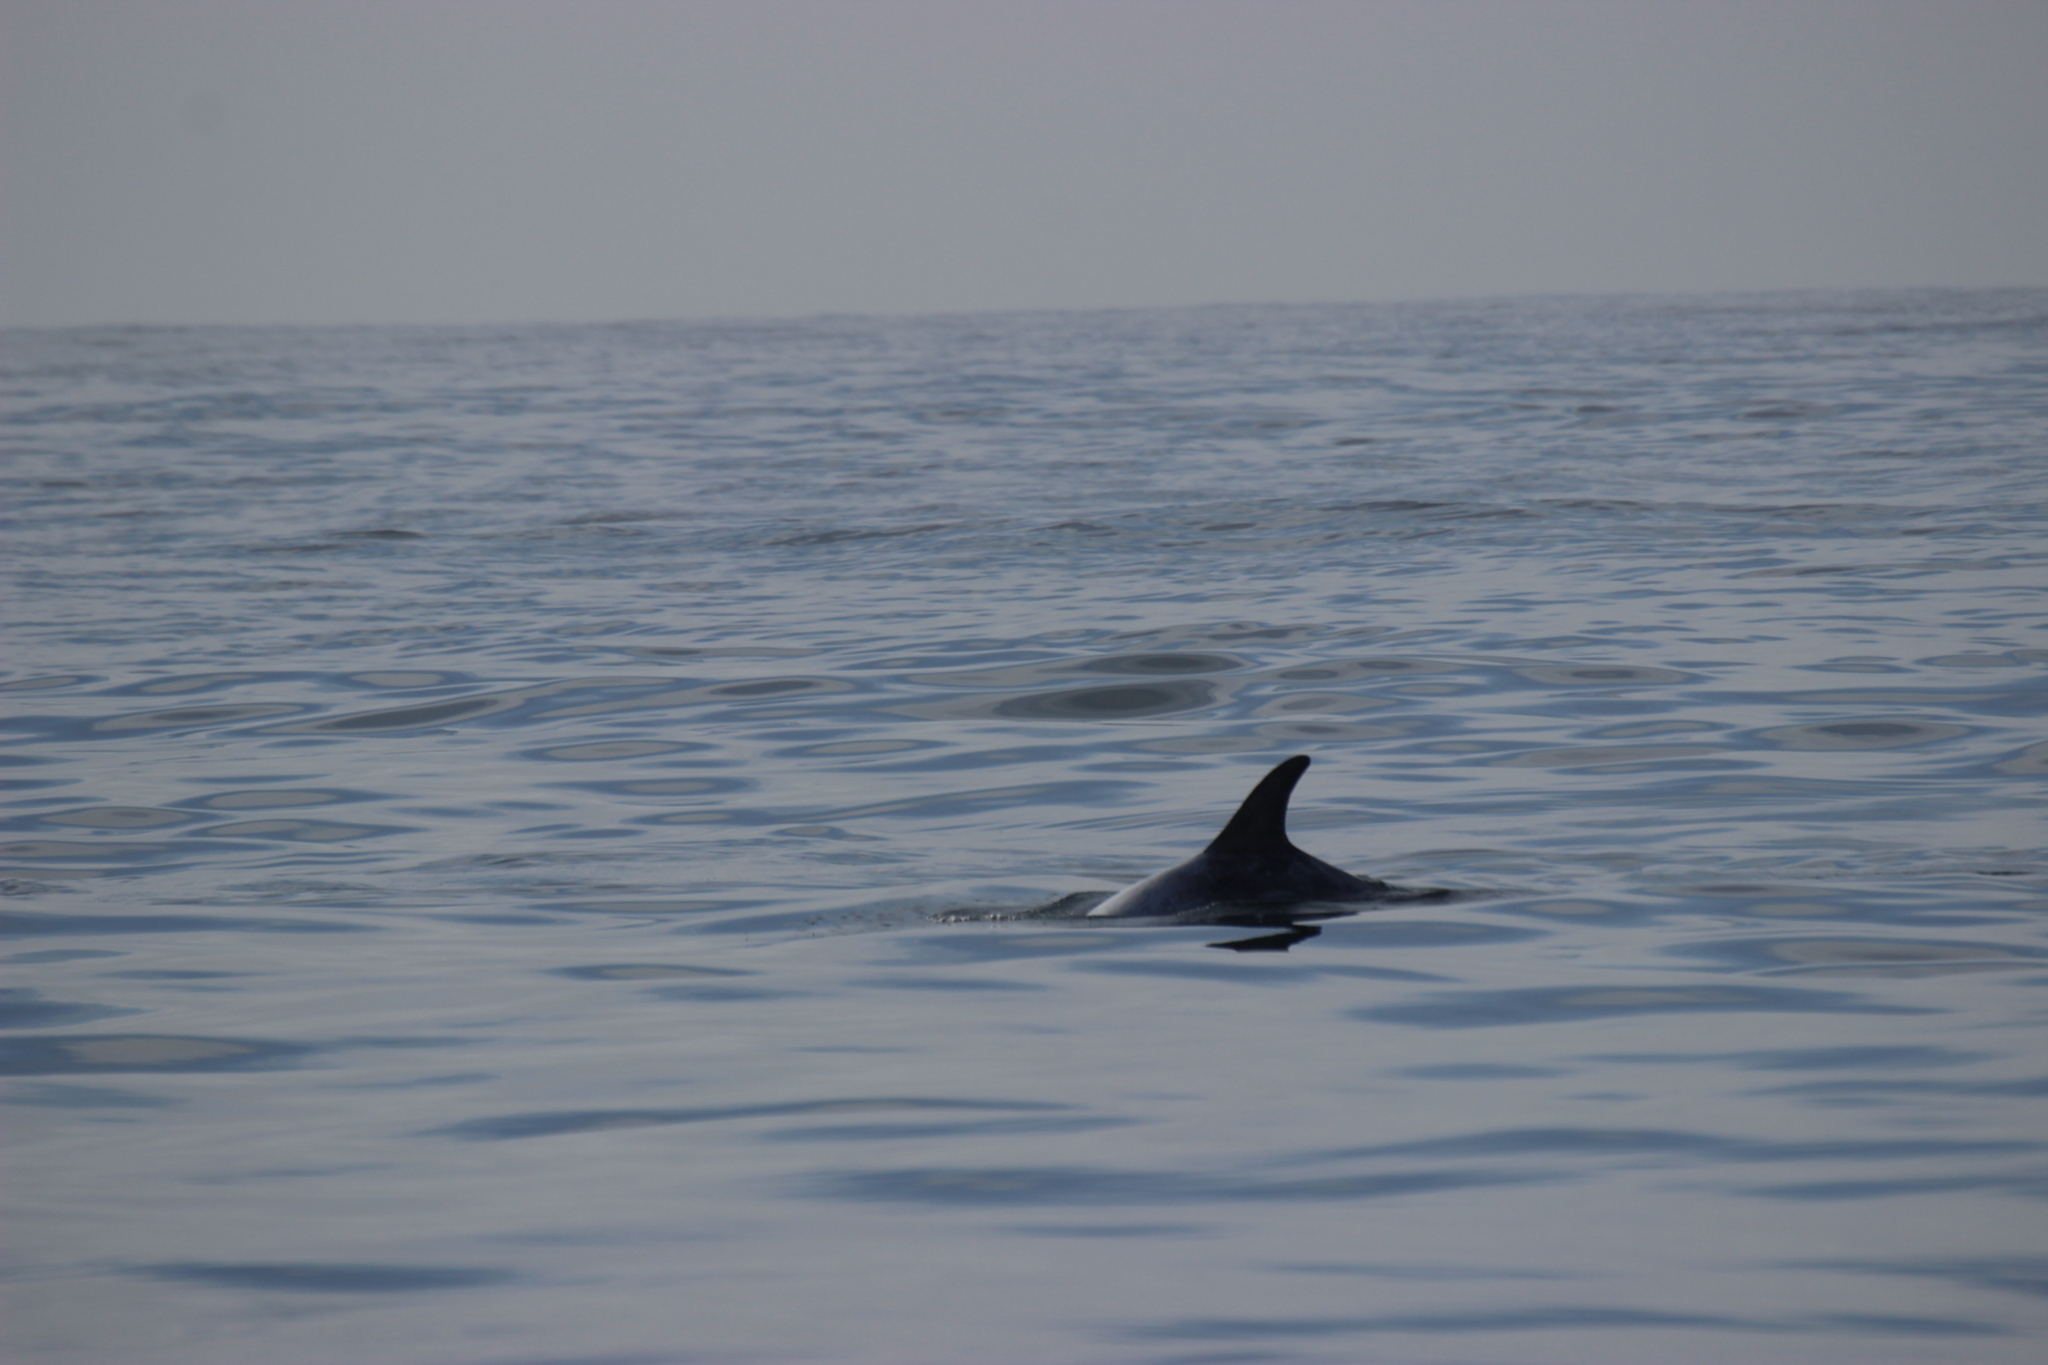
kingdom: Animalia
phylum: Chordata
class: Mammalia
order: Cetacea
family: Delphinidae
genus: Grampus
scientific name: Grampus griseus
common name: Risso's dolphin
